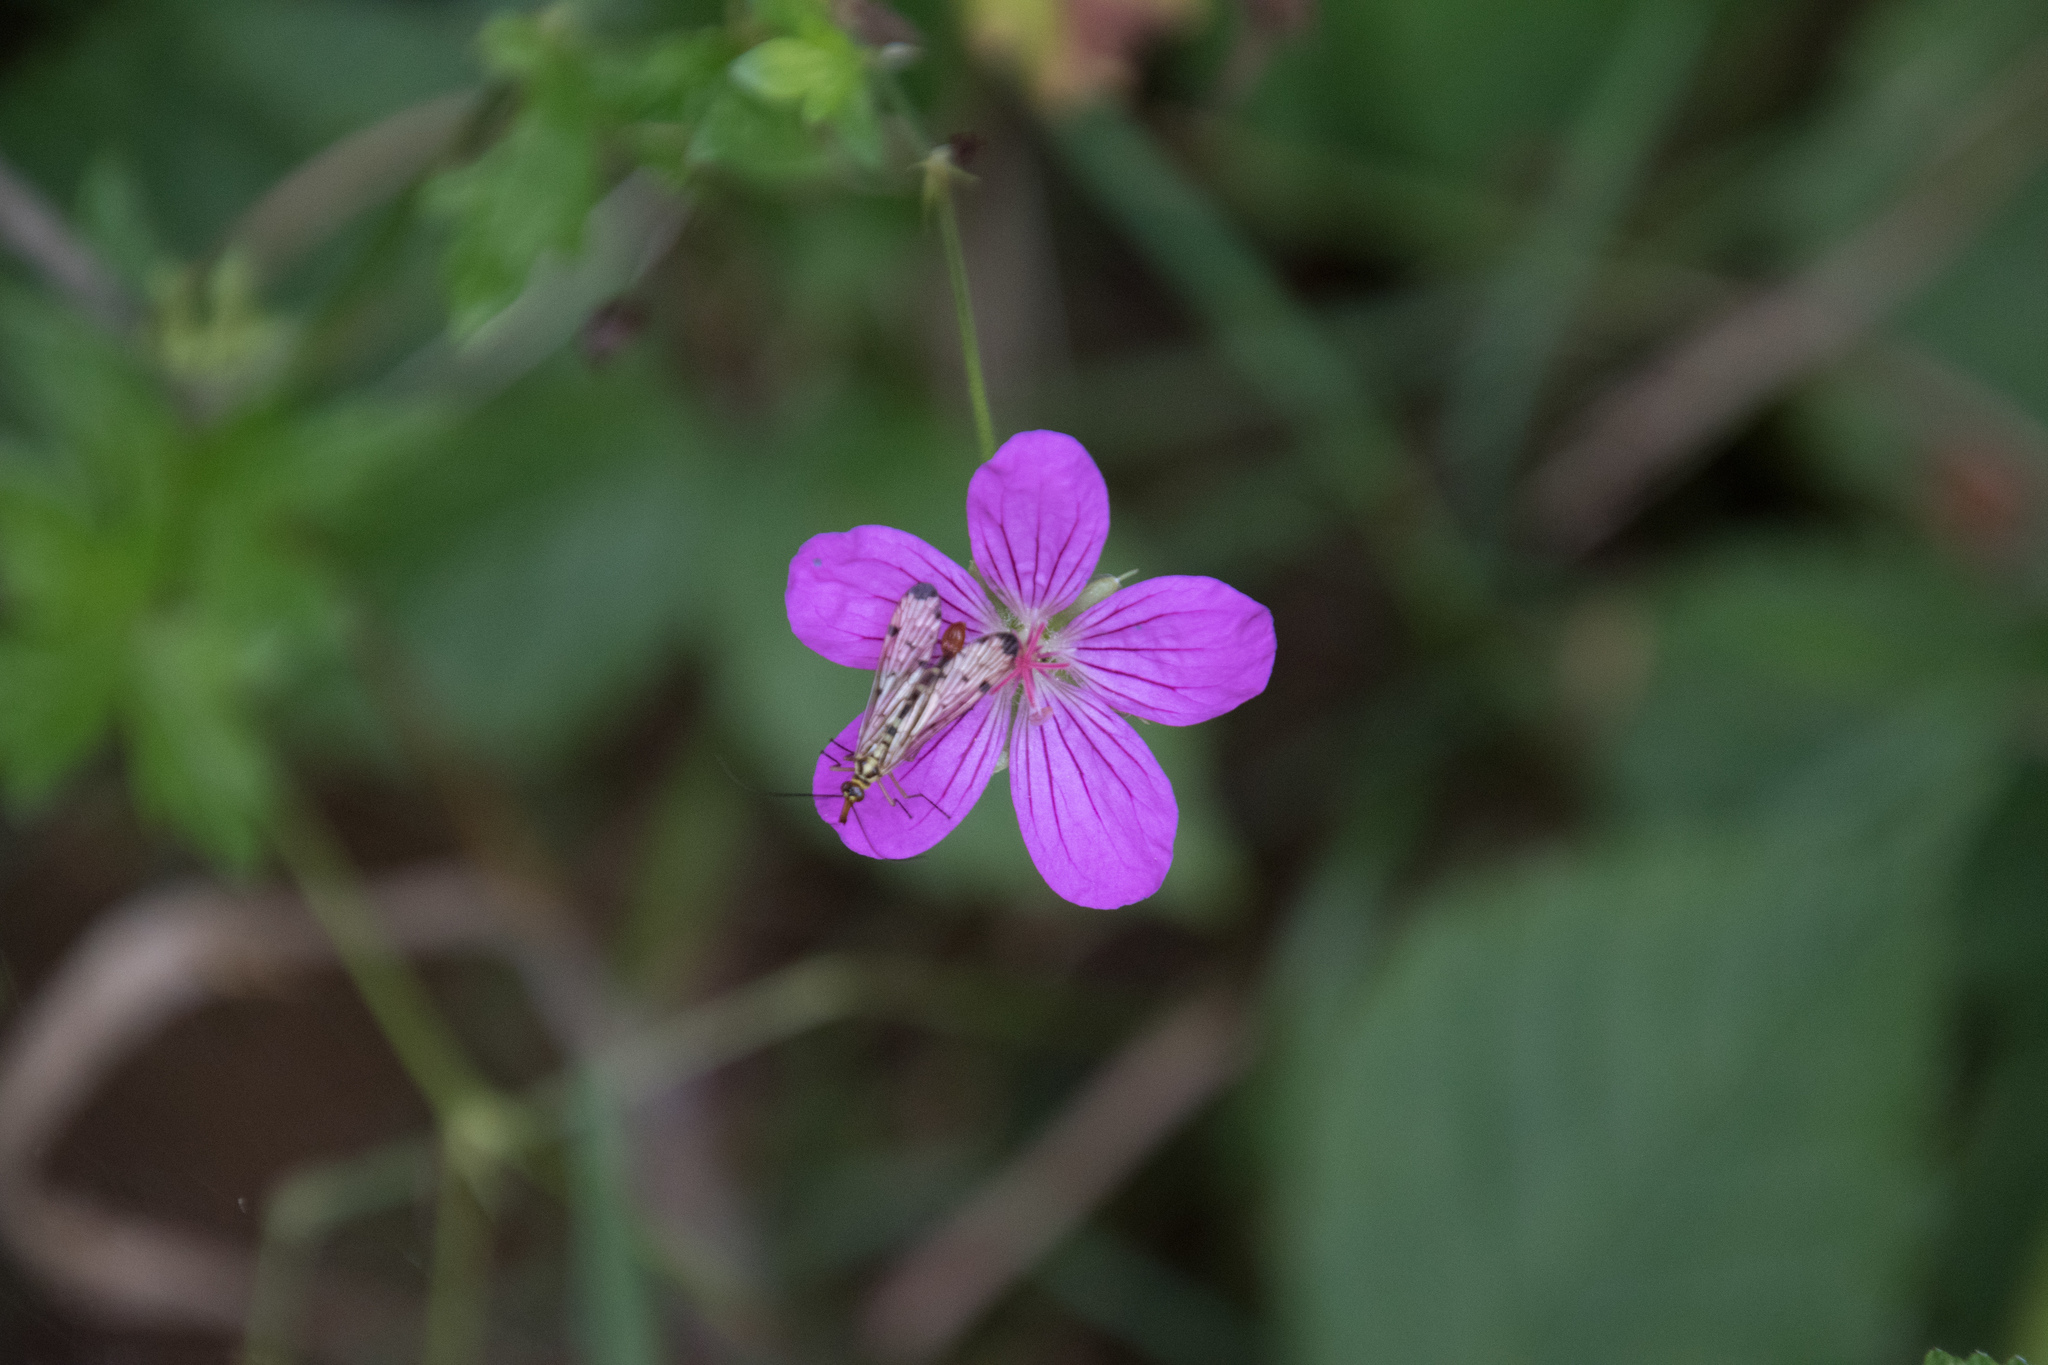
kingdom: Animalia
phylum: Arthropoda
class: Insecta
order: Mecoptera
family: Panorpidae
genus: Panorpa
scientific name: Panorpa germanica
